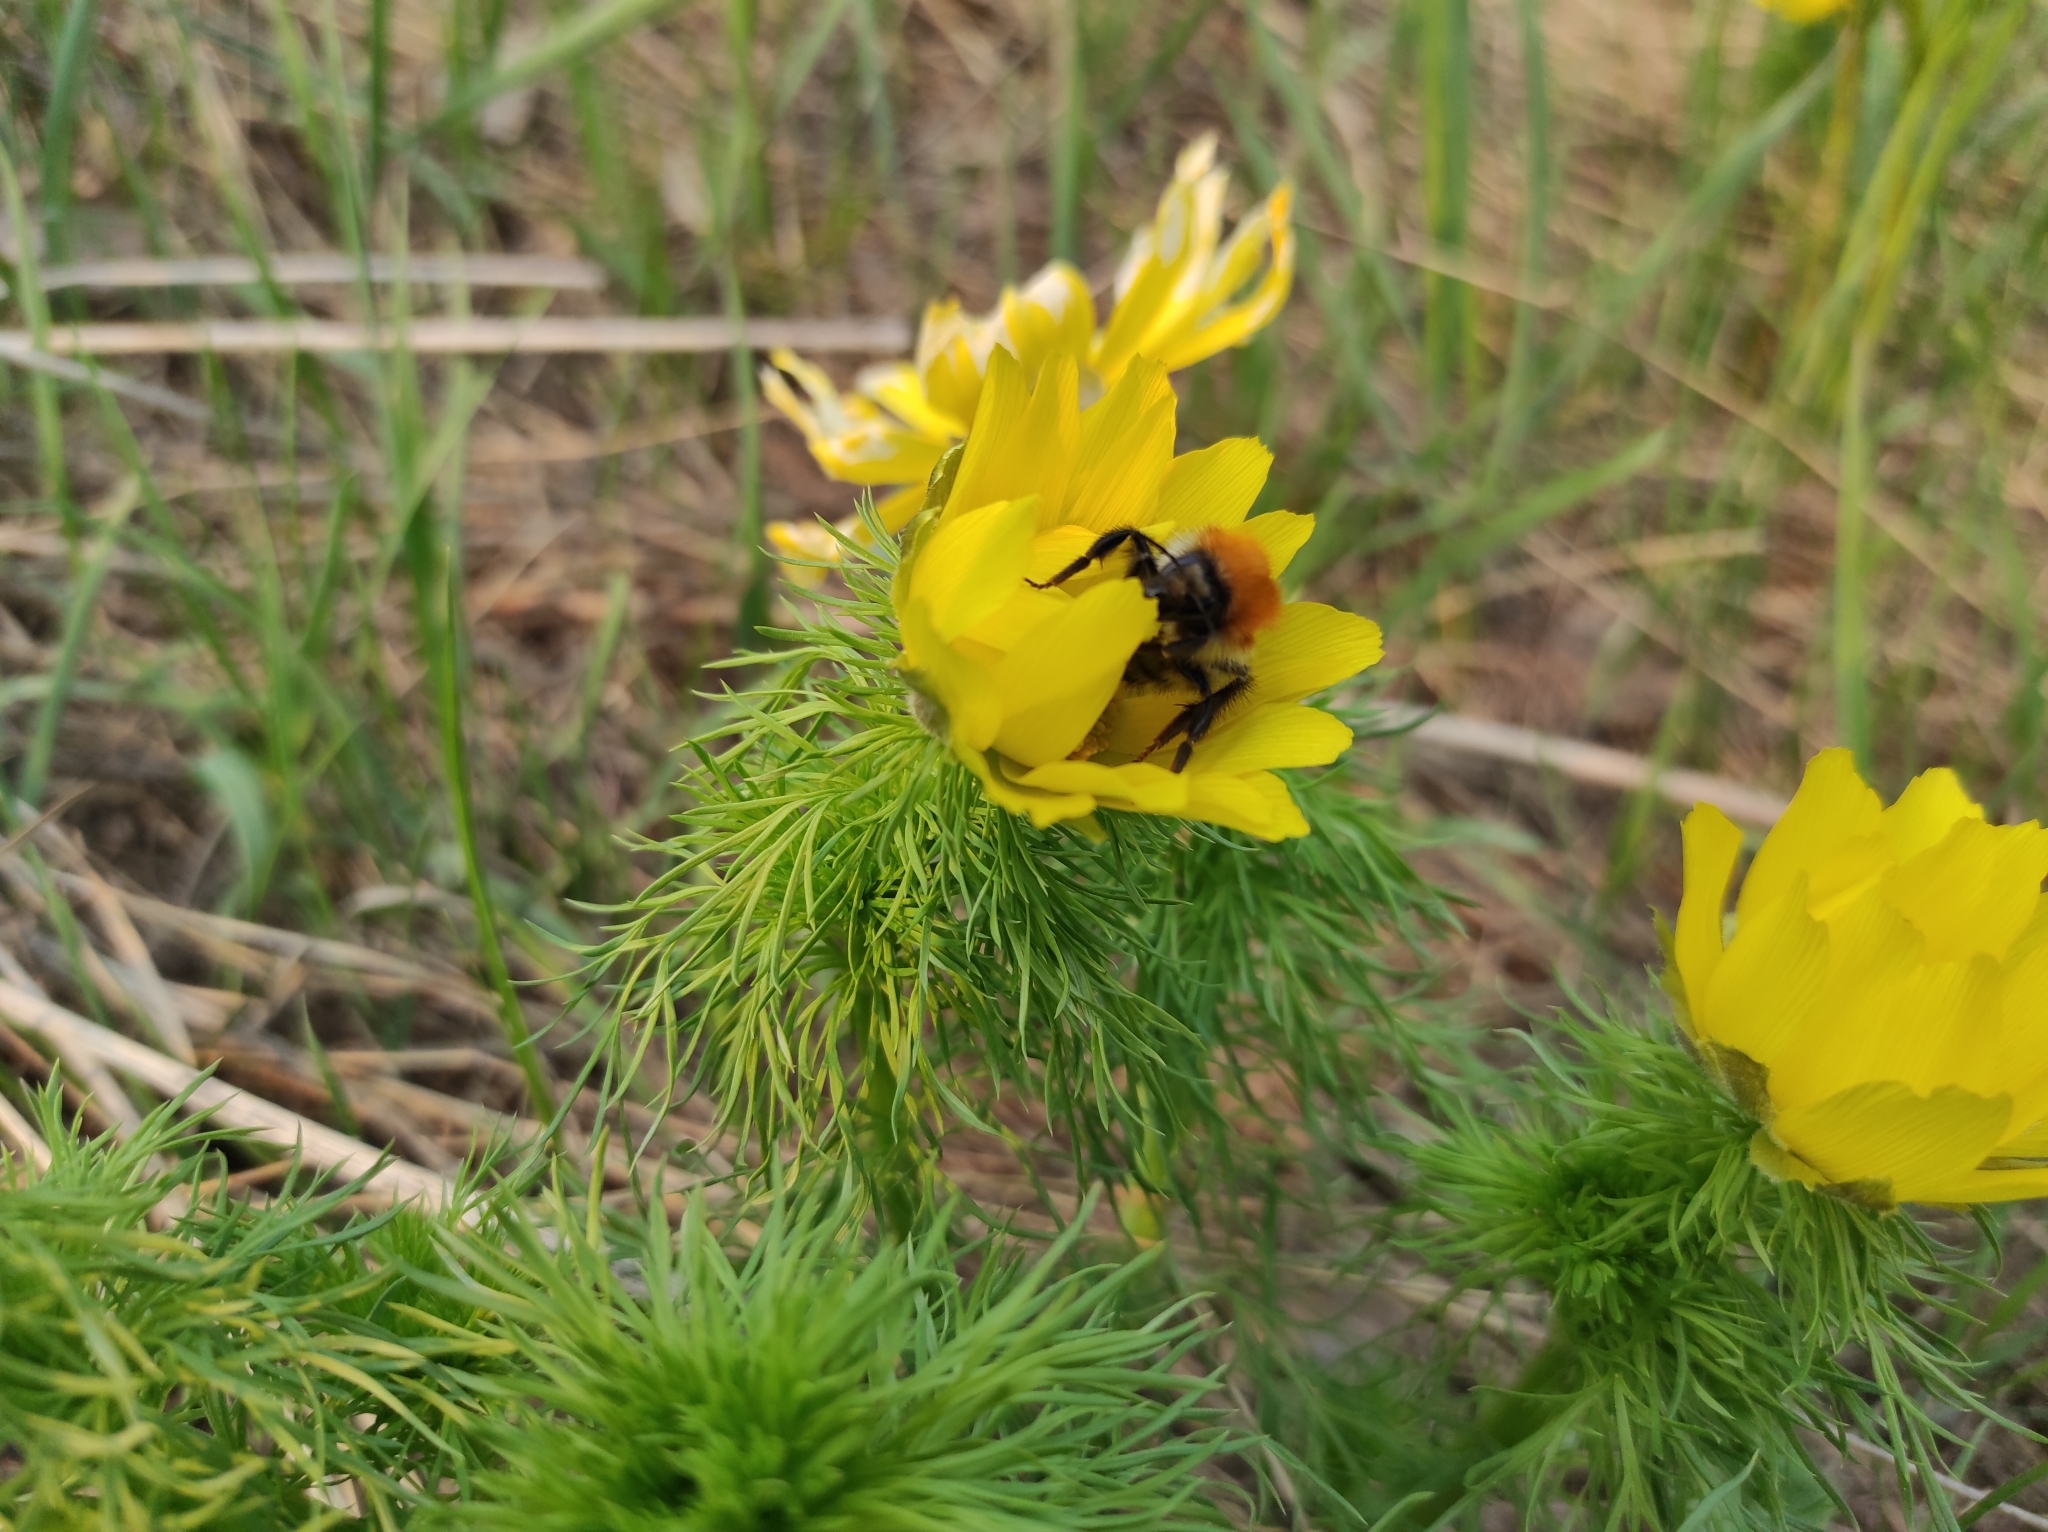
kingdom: Plantae
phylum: Tracheophyta
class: Magnoliopsida
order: Ranunculales
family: Ranunculaceae
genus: Adonis
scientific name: Adonis vernalis
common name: Yellow pheasants-eye
